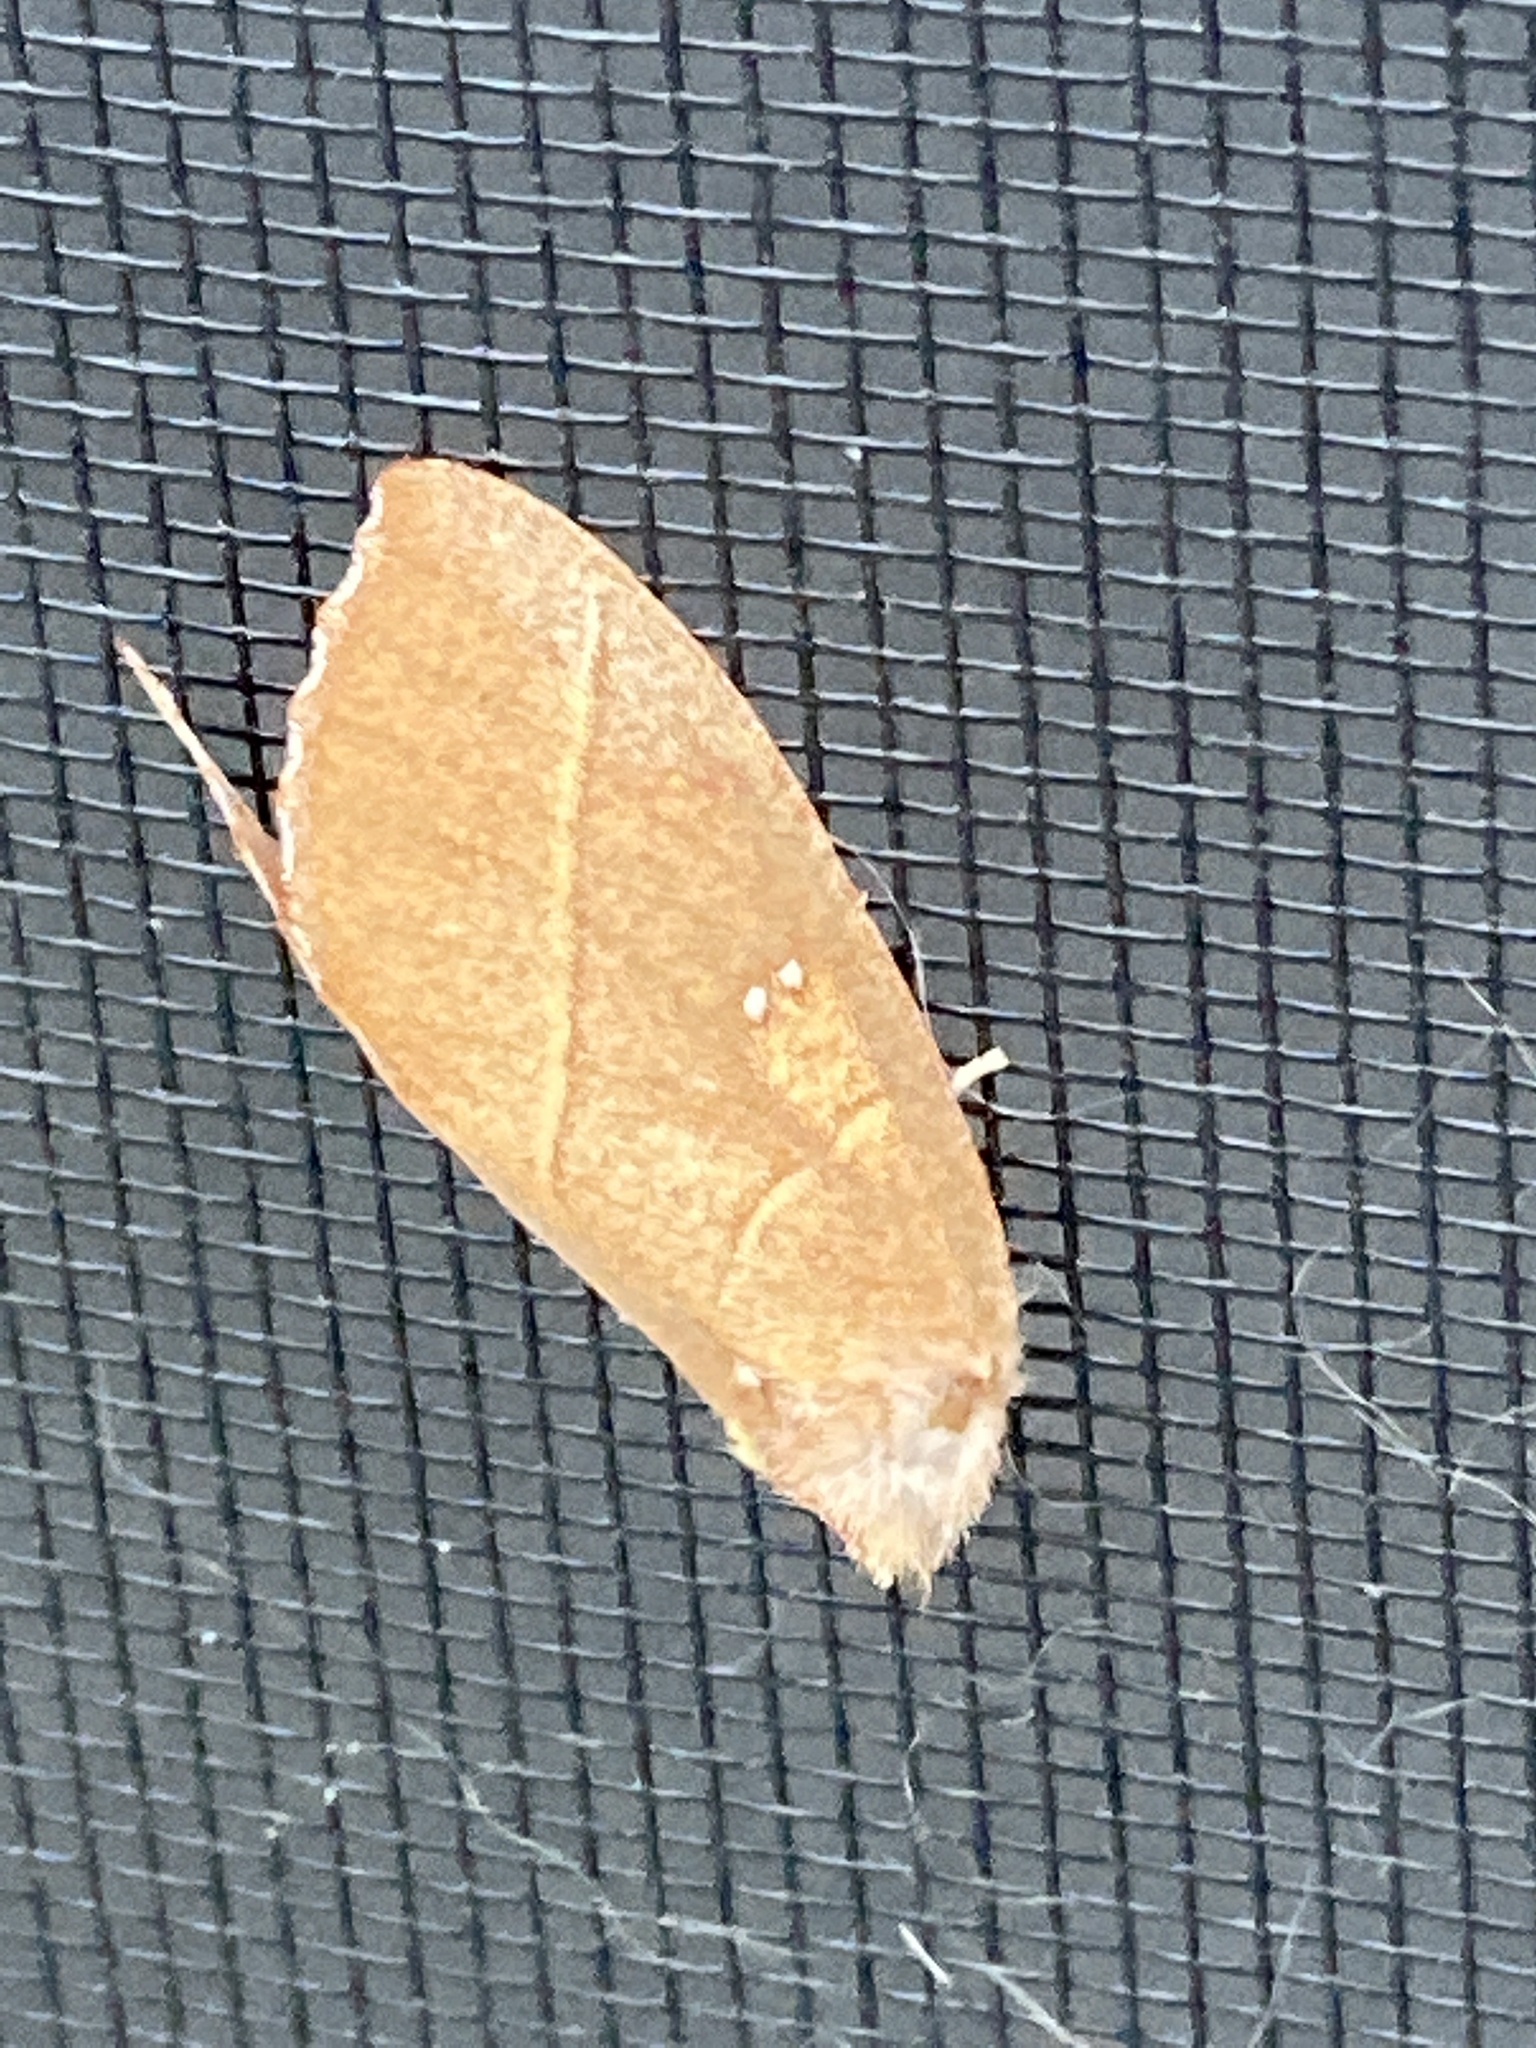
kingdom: Animalia
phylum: Arthropoda
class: Insecta
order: Lepidoptera
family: Notodontidae
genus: Nadata
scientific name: Nadata gibbosa
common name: White-dotted prominent
